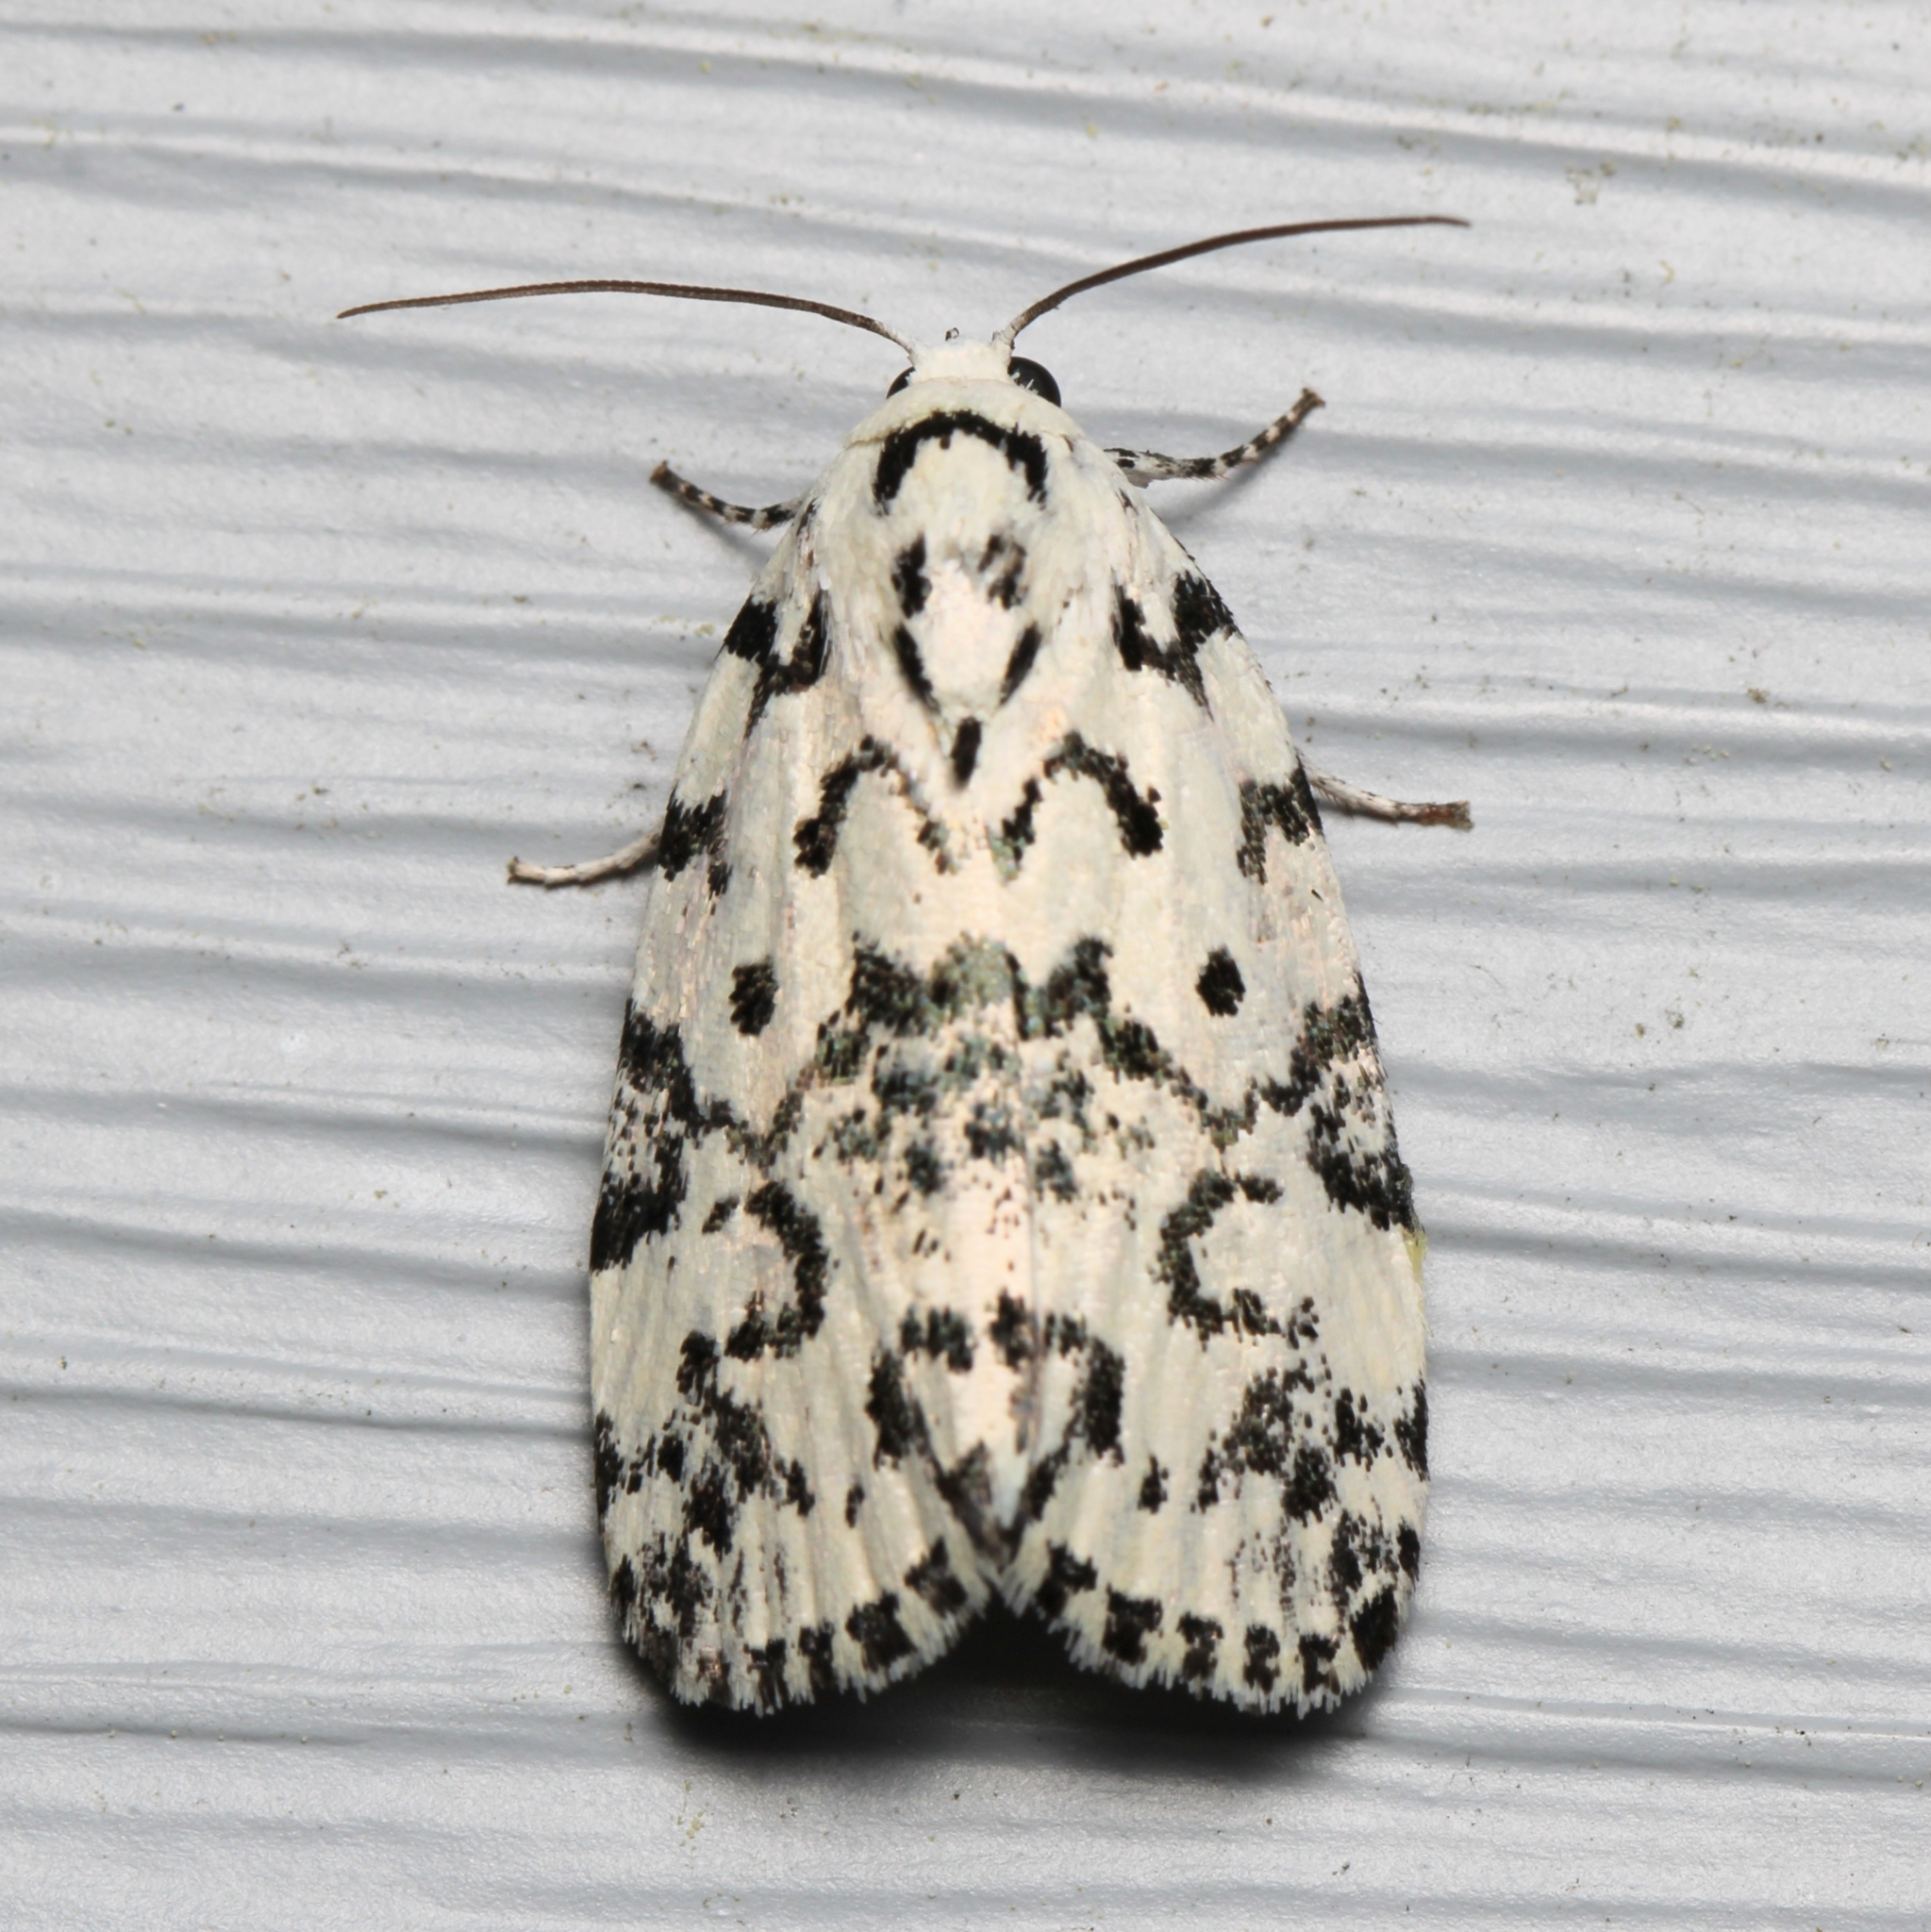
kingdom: Animalia
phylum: Arthropoda
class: Insecta
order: Lepidoptera
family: Noctuidae
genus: Polygrammate
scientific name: Polygrammate hebraeicum
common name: Hebrew moth
